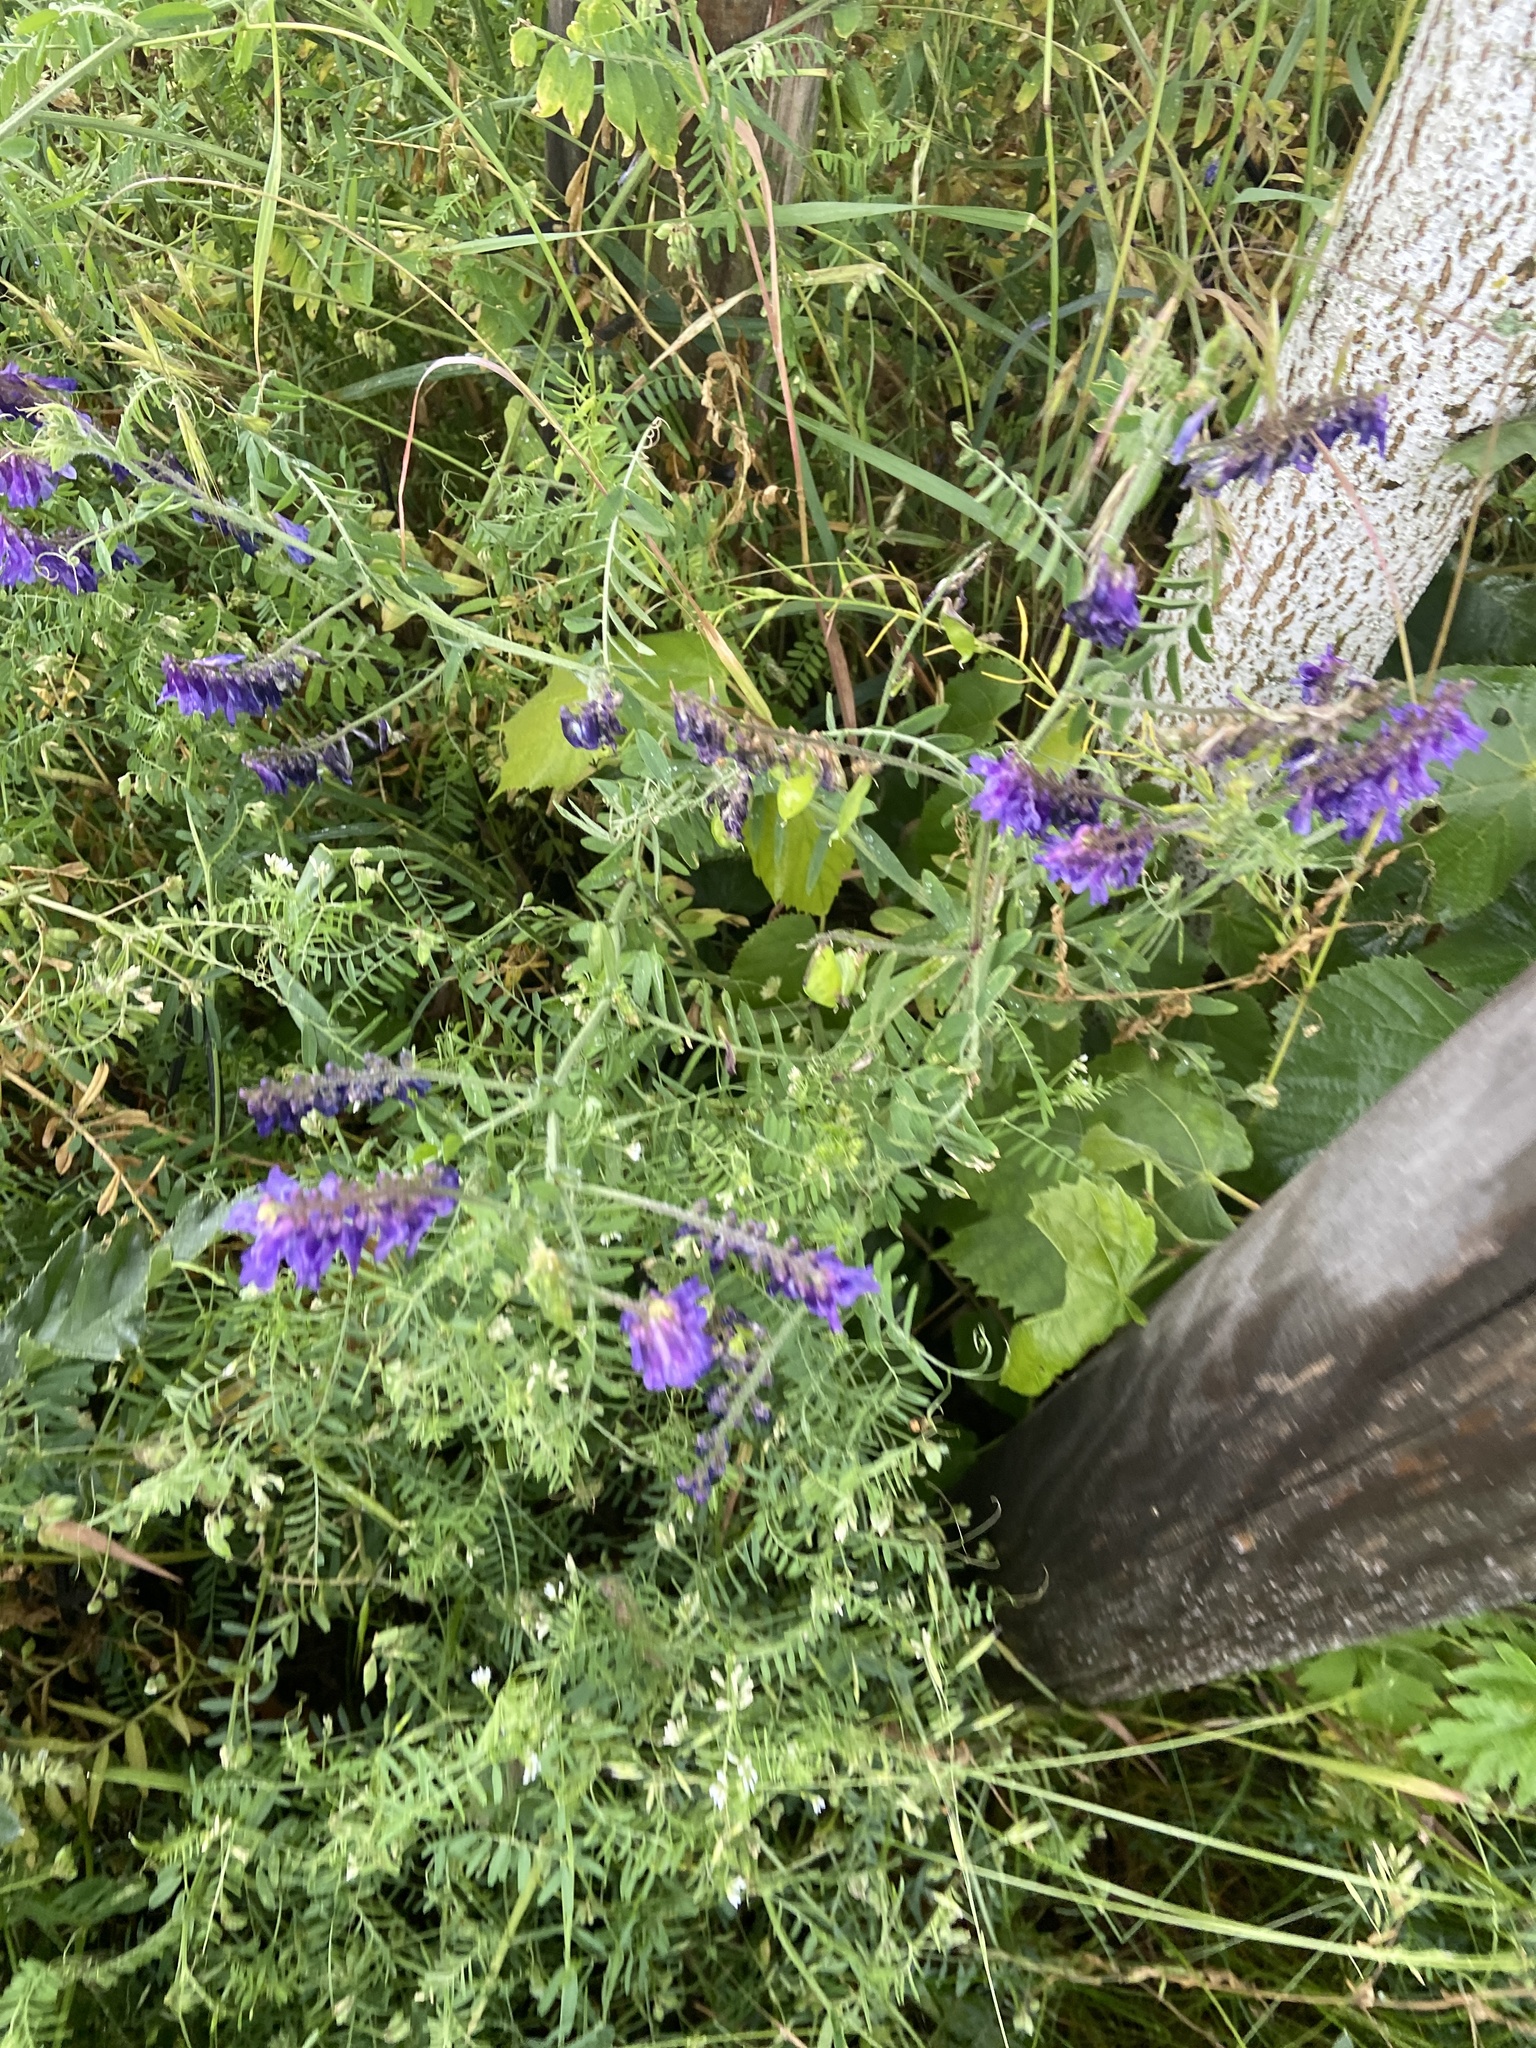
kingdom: Plantae
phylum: Tracheophyta
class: Magnoliopsida
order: Fabales
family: Fabaceae
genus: Vicia
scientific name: Vicia villosa
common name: Fodder vetch
